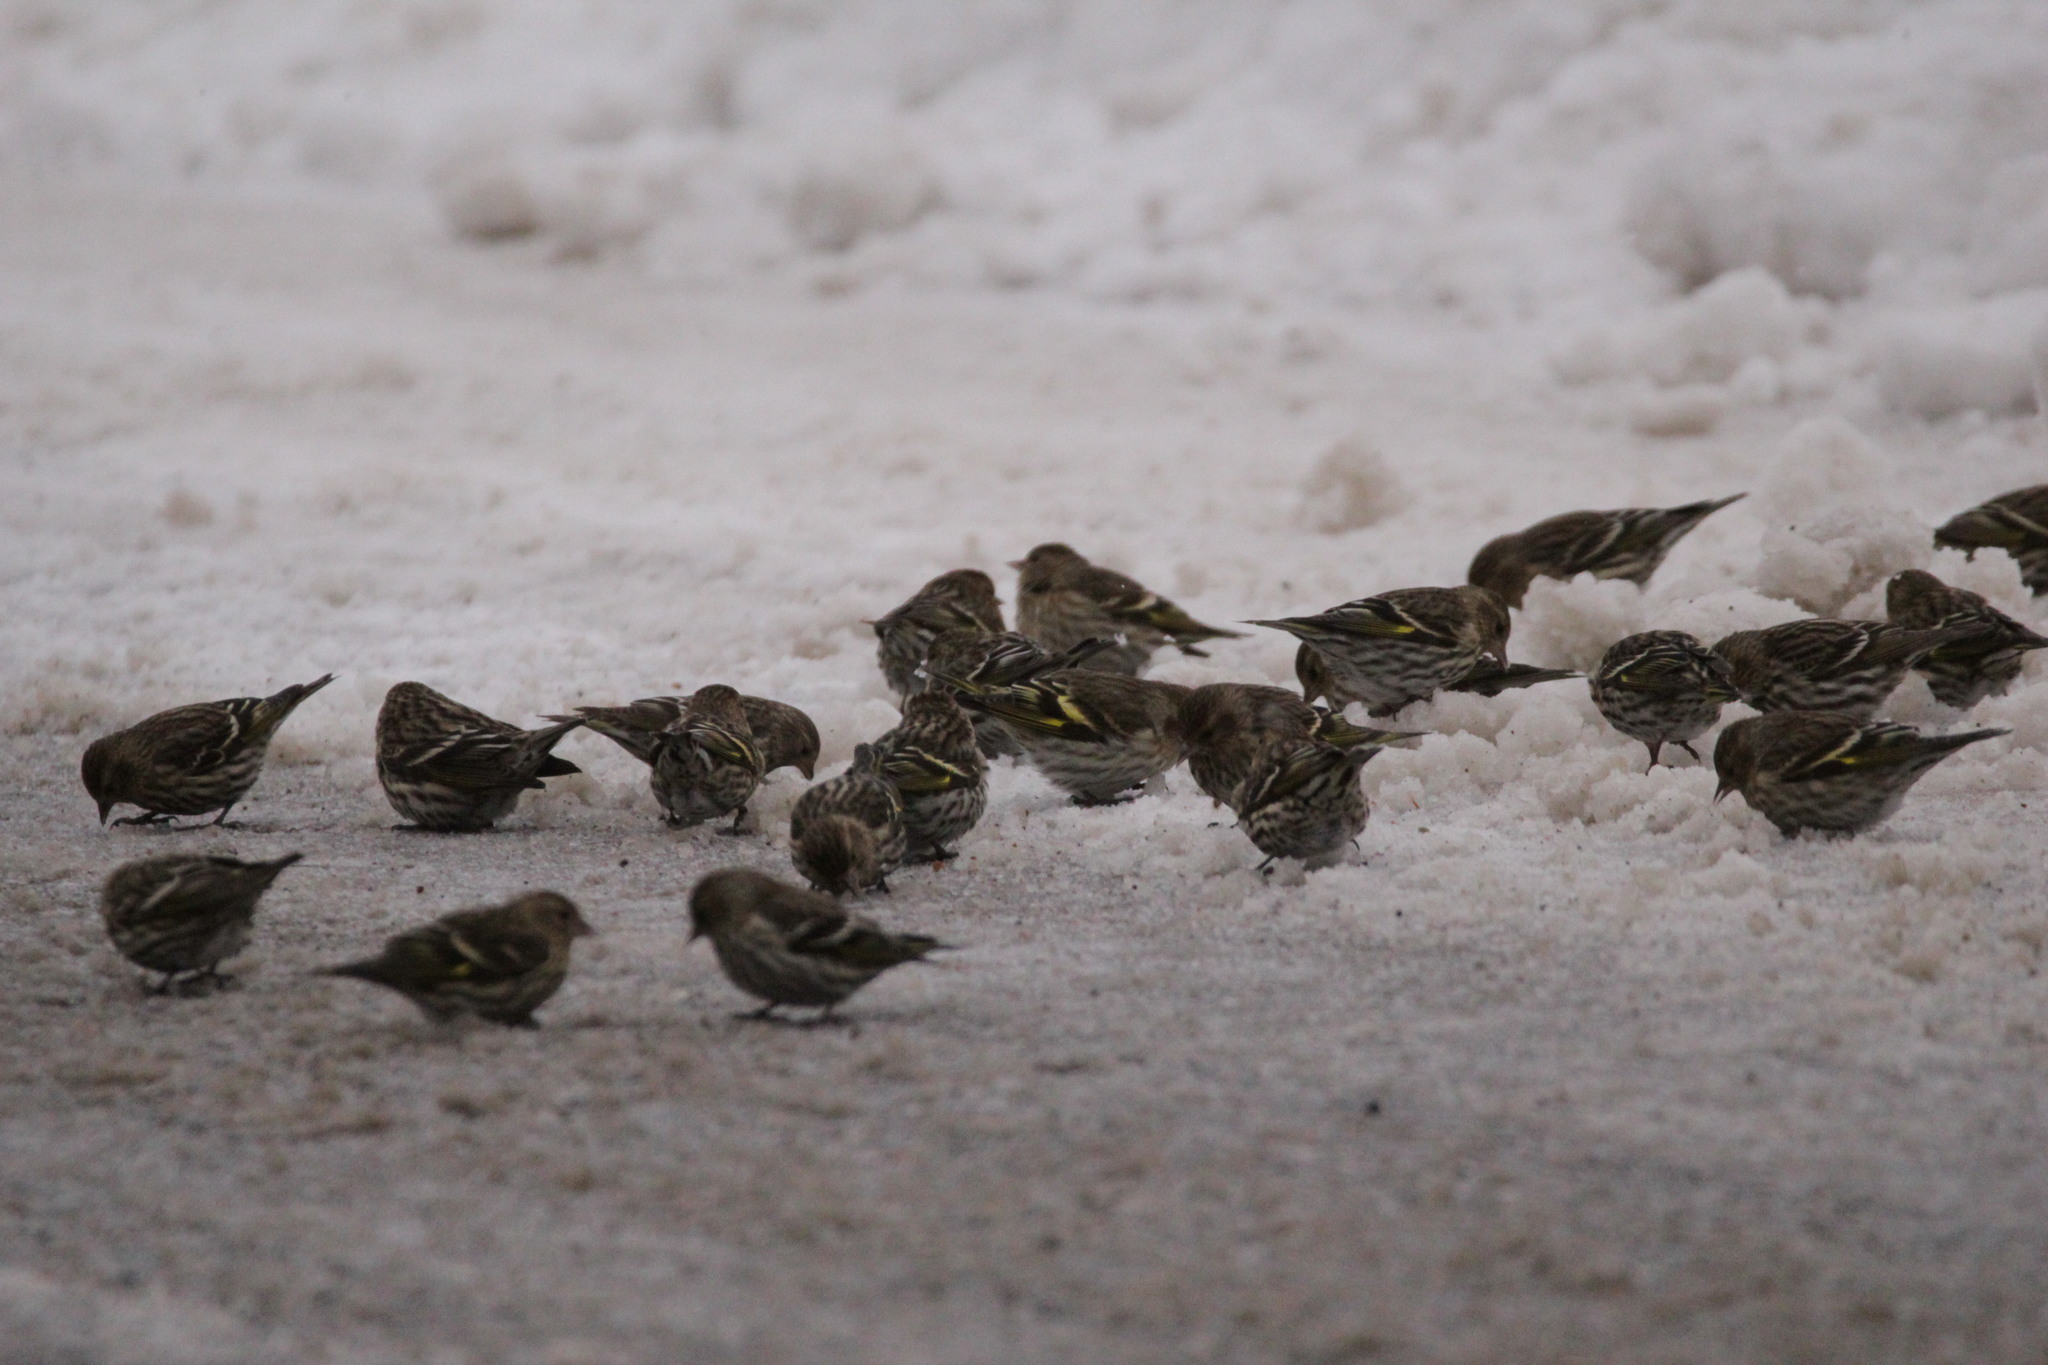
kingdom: Animalia
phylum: Chordata
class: Aves
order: Passeriformes
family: Fringillidae
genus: Spinus
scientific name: Spinus pinus
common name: Pine siskin
